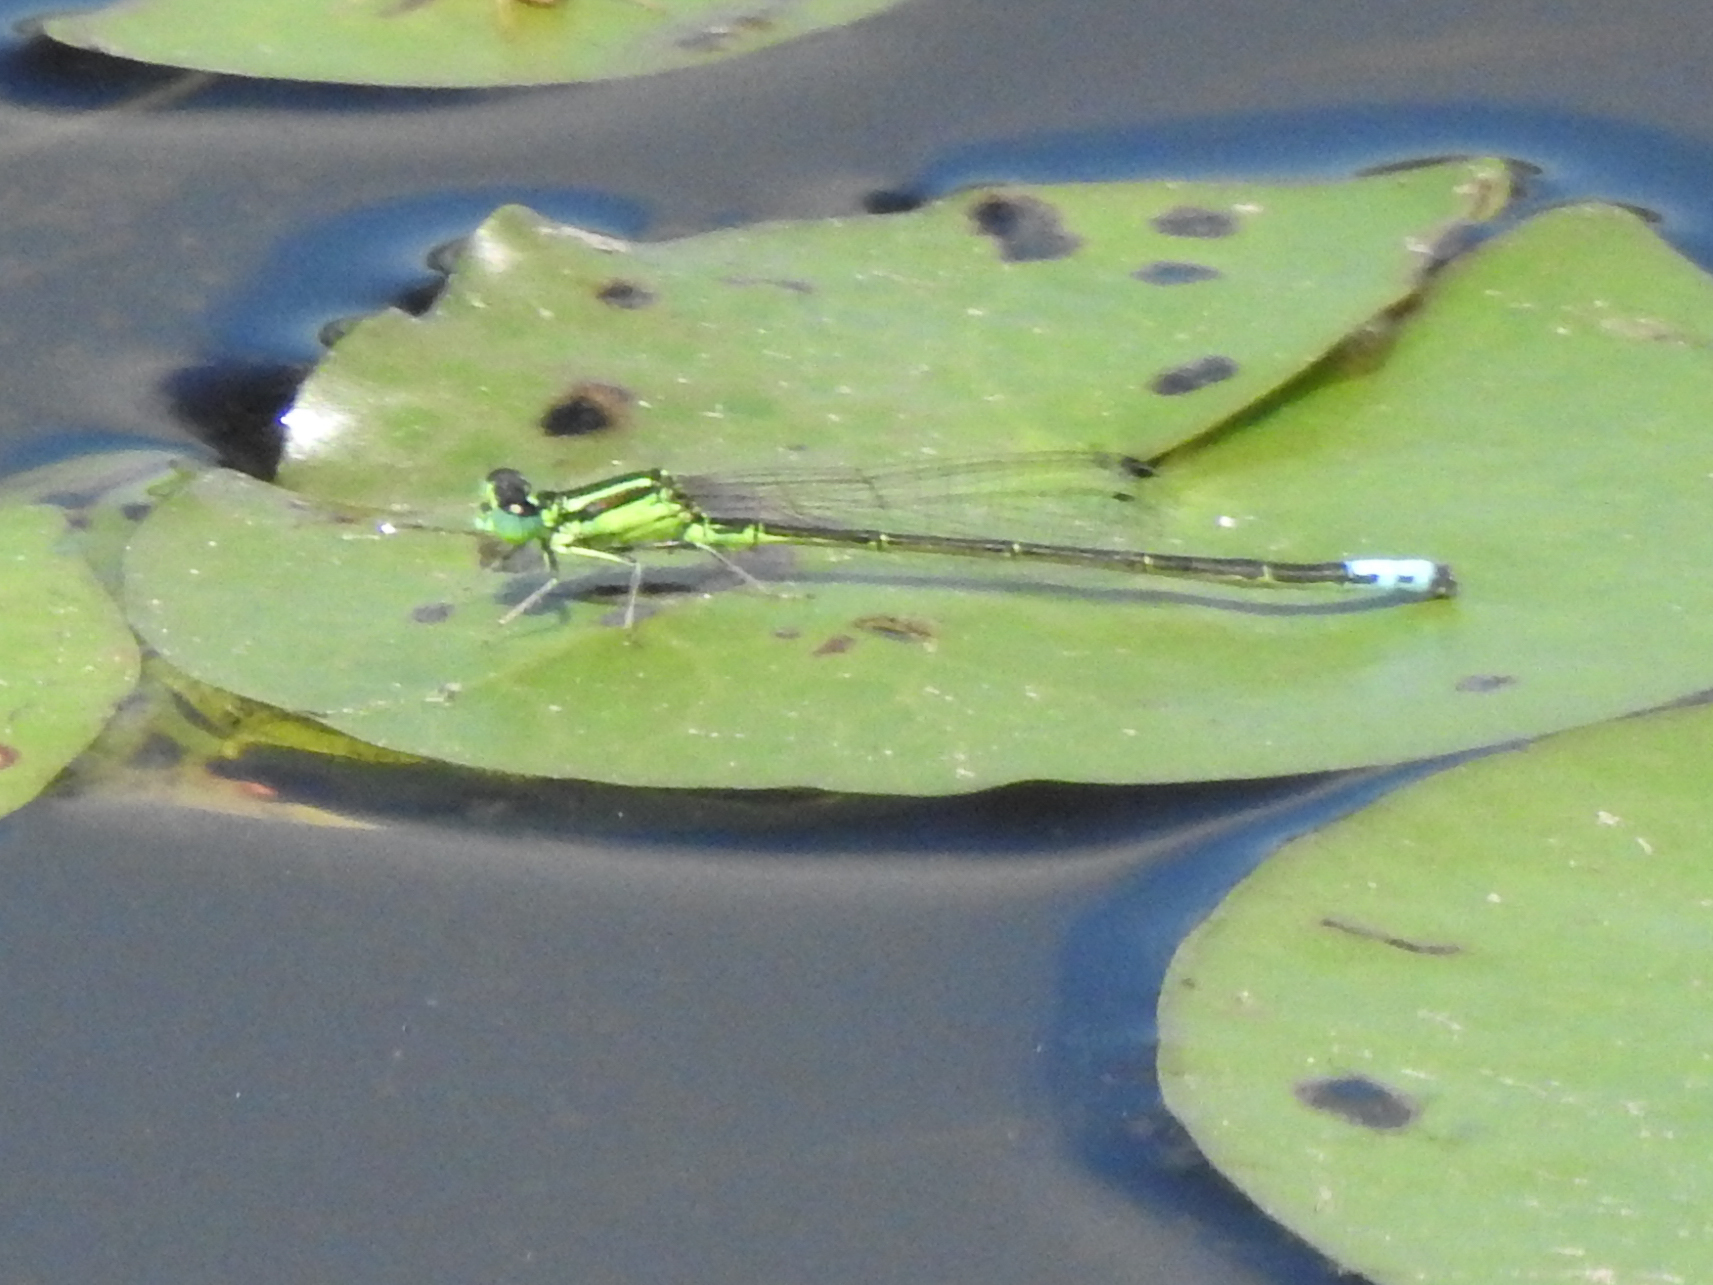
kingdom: Animalia
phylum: Arthropoda
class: Insecta
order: Odonata
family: Coenagrionidae
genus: Ischnura
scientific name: Ischnura verticalis
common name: Eastern forktail
